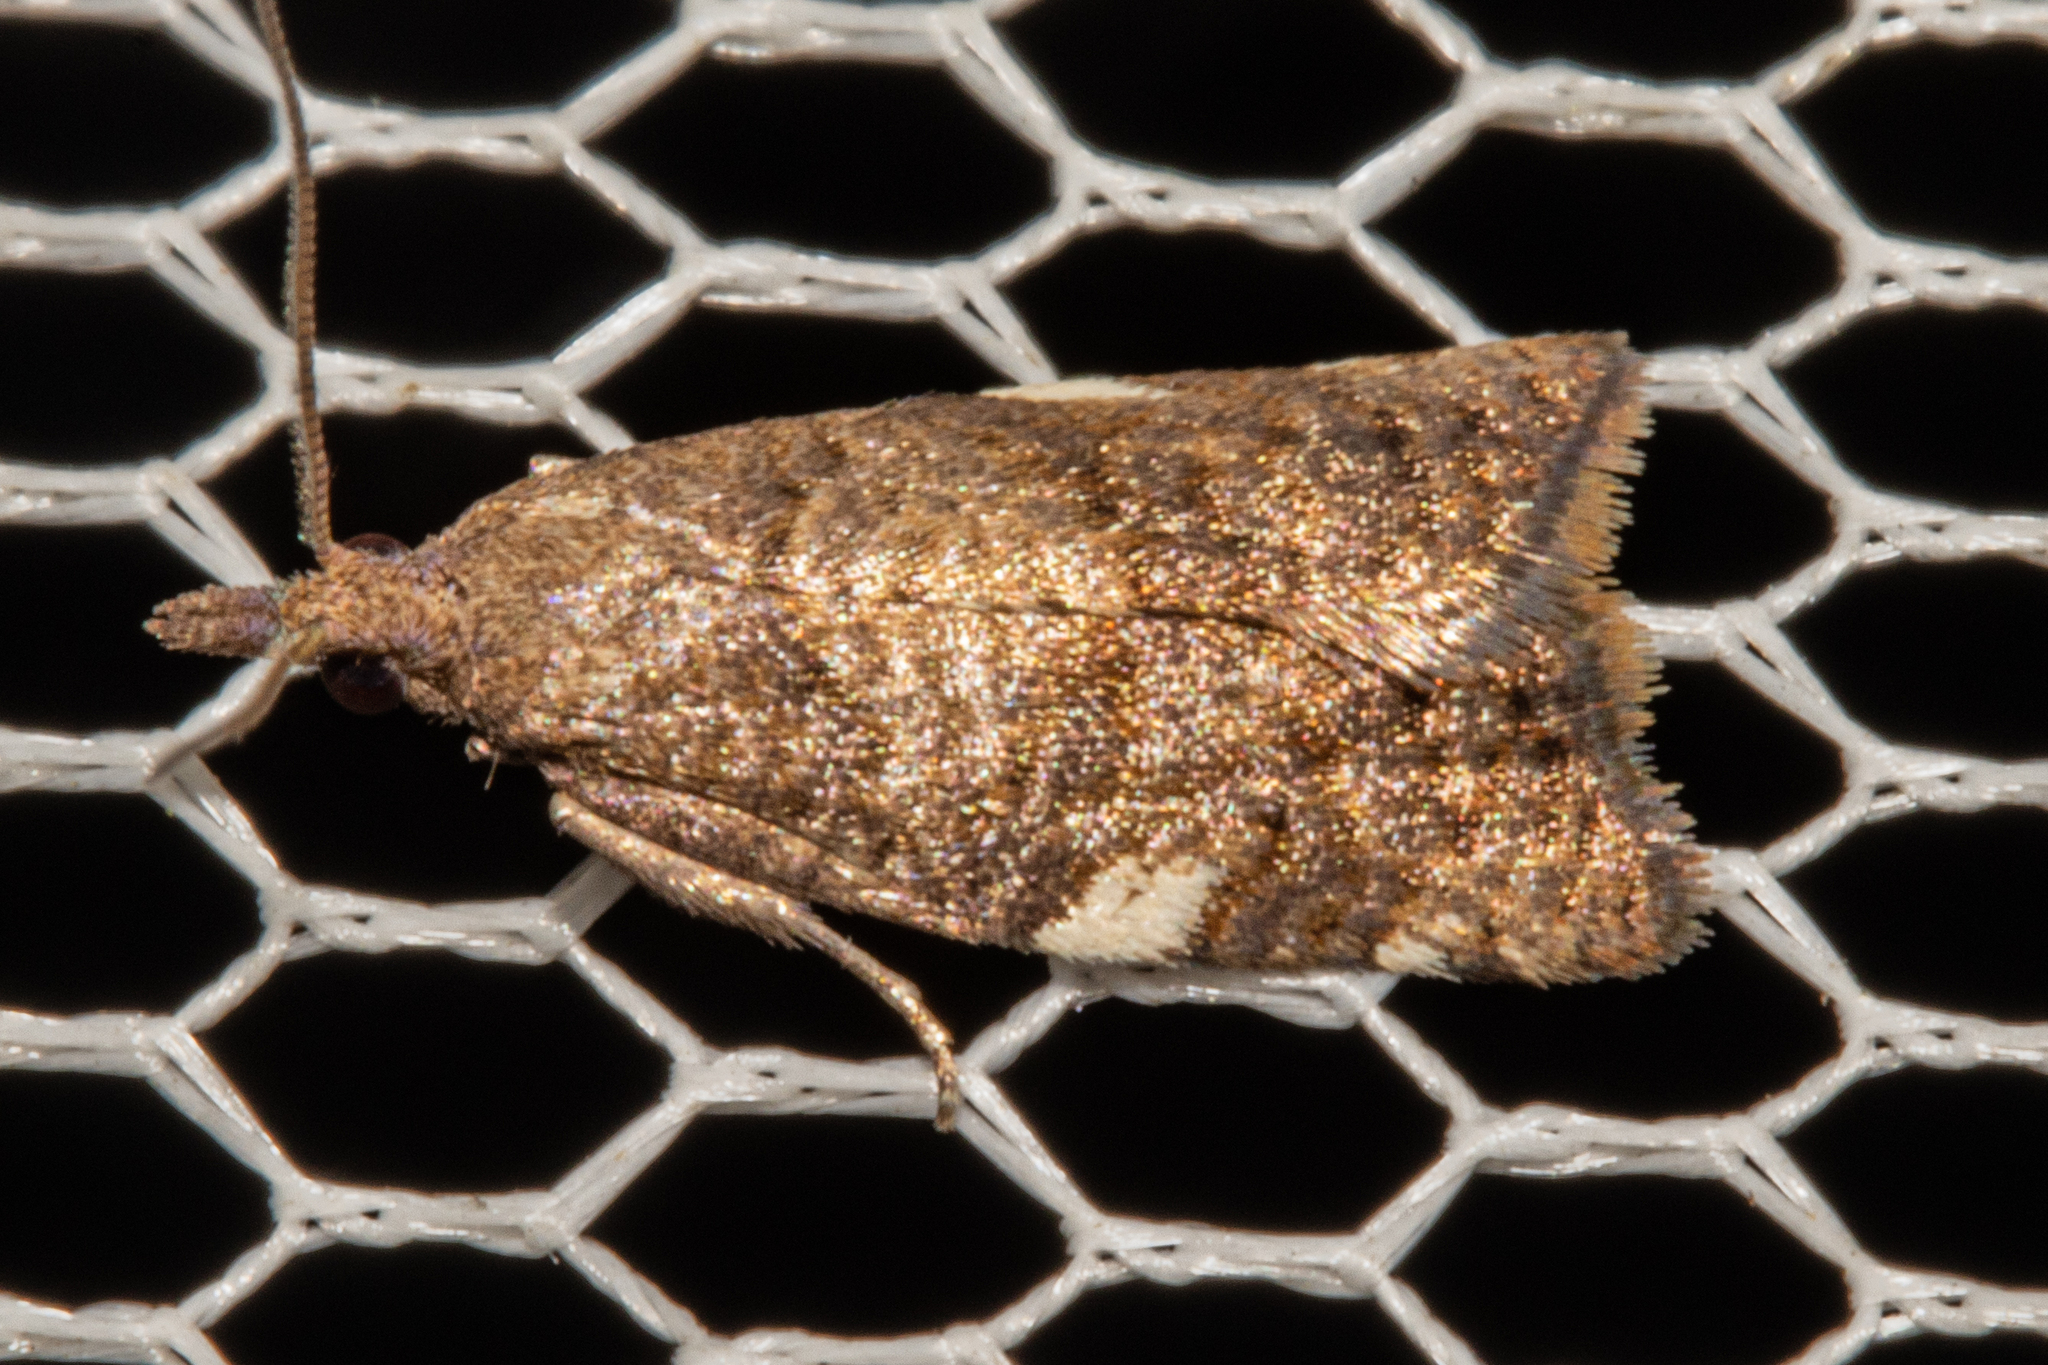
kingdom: Animalia
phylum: Arthropoda
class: Insecta
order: Lepidoptera
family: Tortricidae
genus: Catamacta
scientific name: Catamacta gavisana
